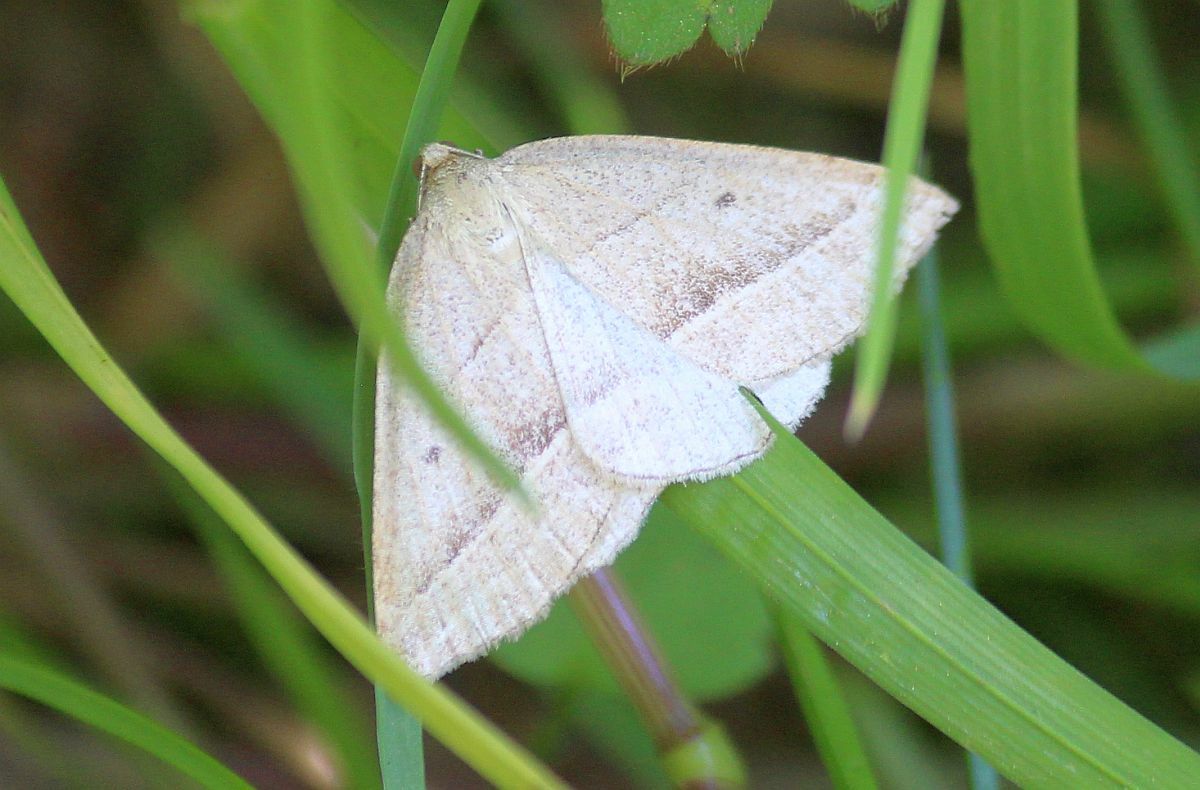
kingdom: Animalia
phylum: Arthropoda
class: Insecta
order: Lepidoptera
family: Pterophoridae
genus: Pterophorus
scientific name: Pterophorus Petrophora chlorosata
